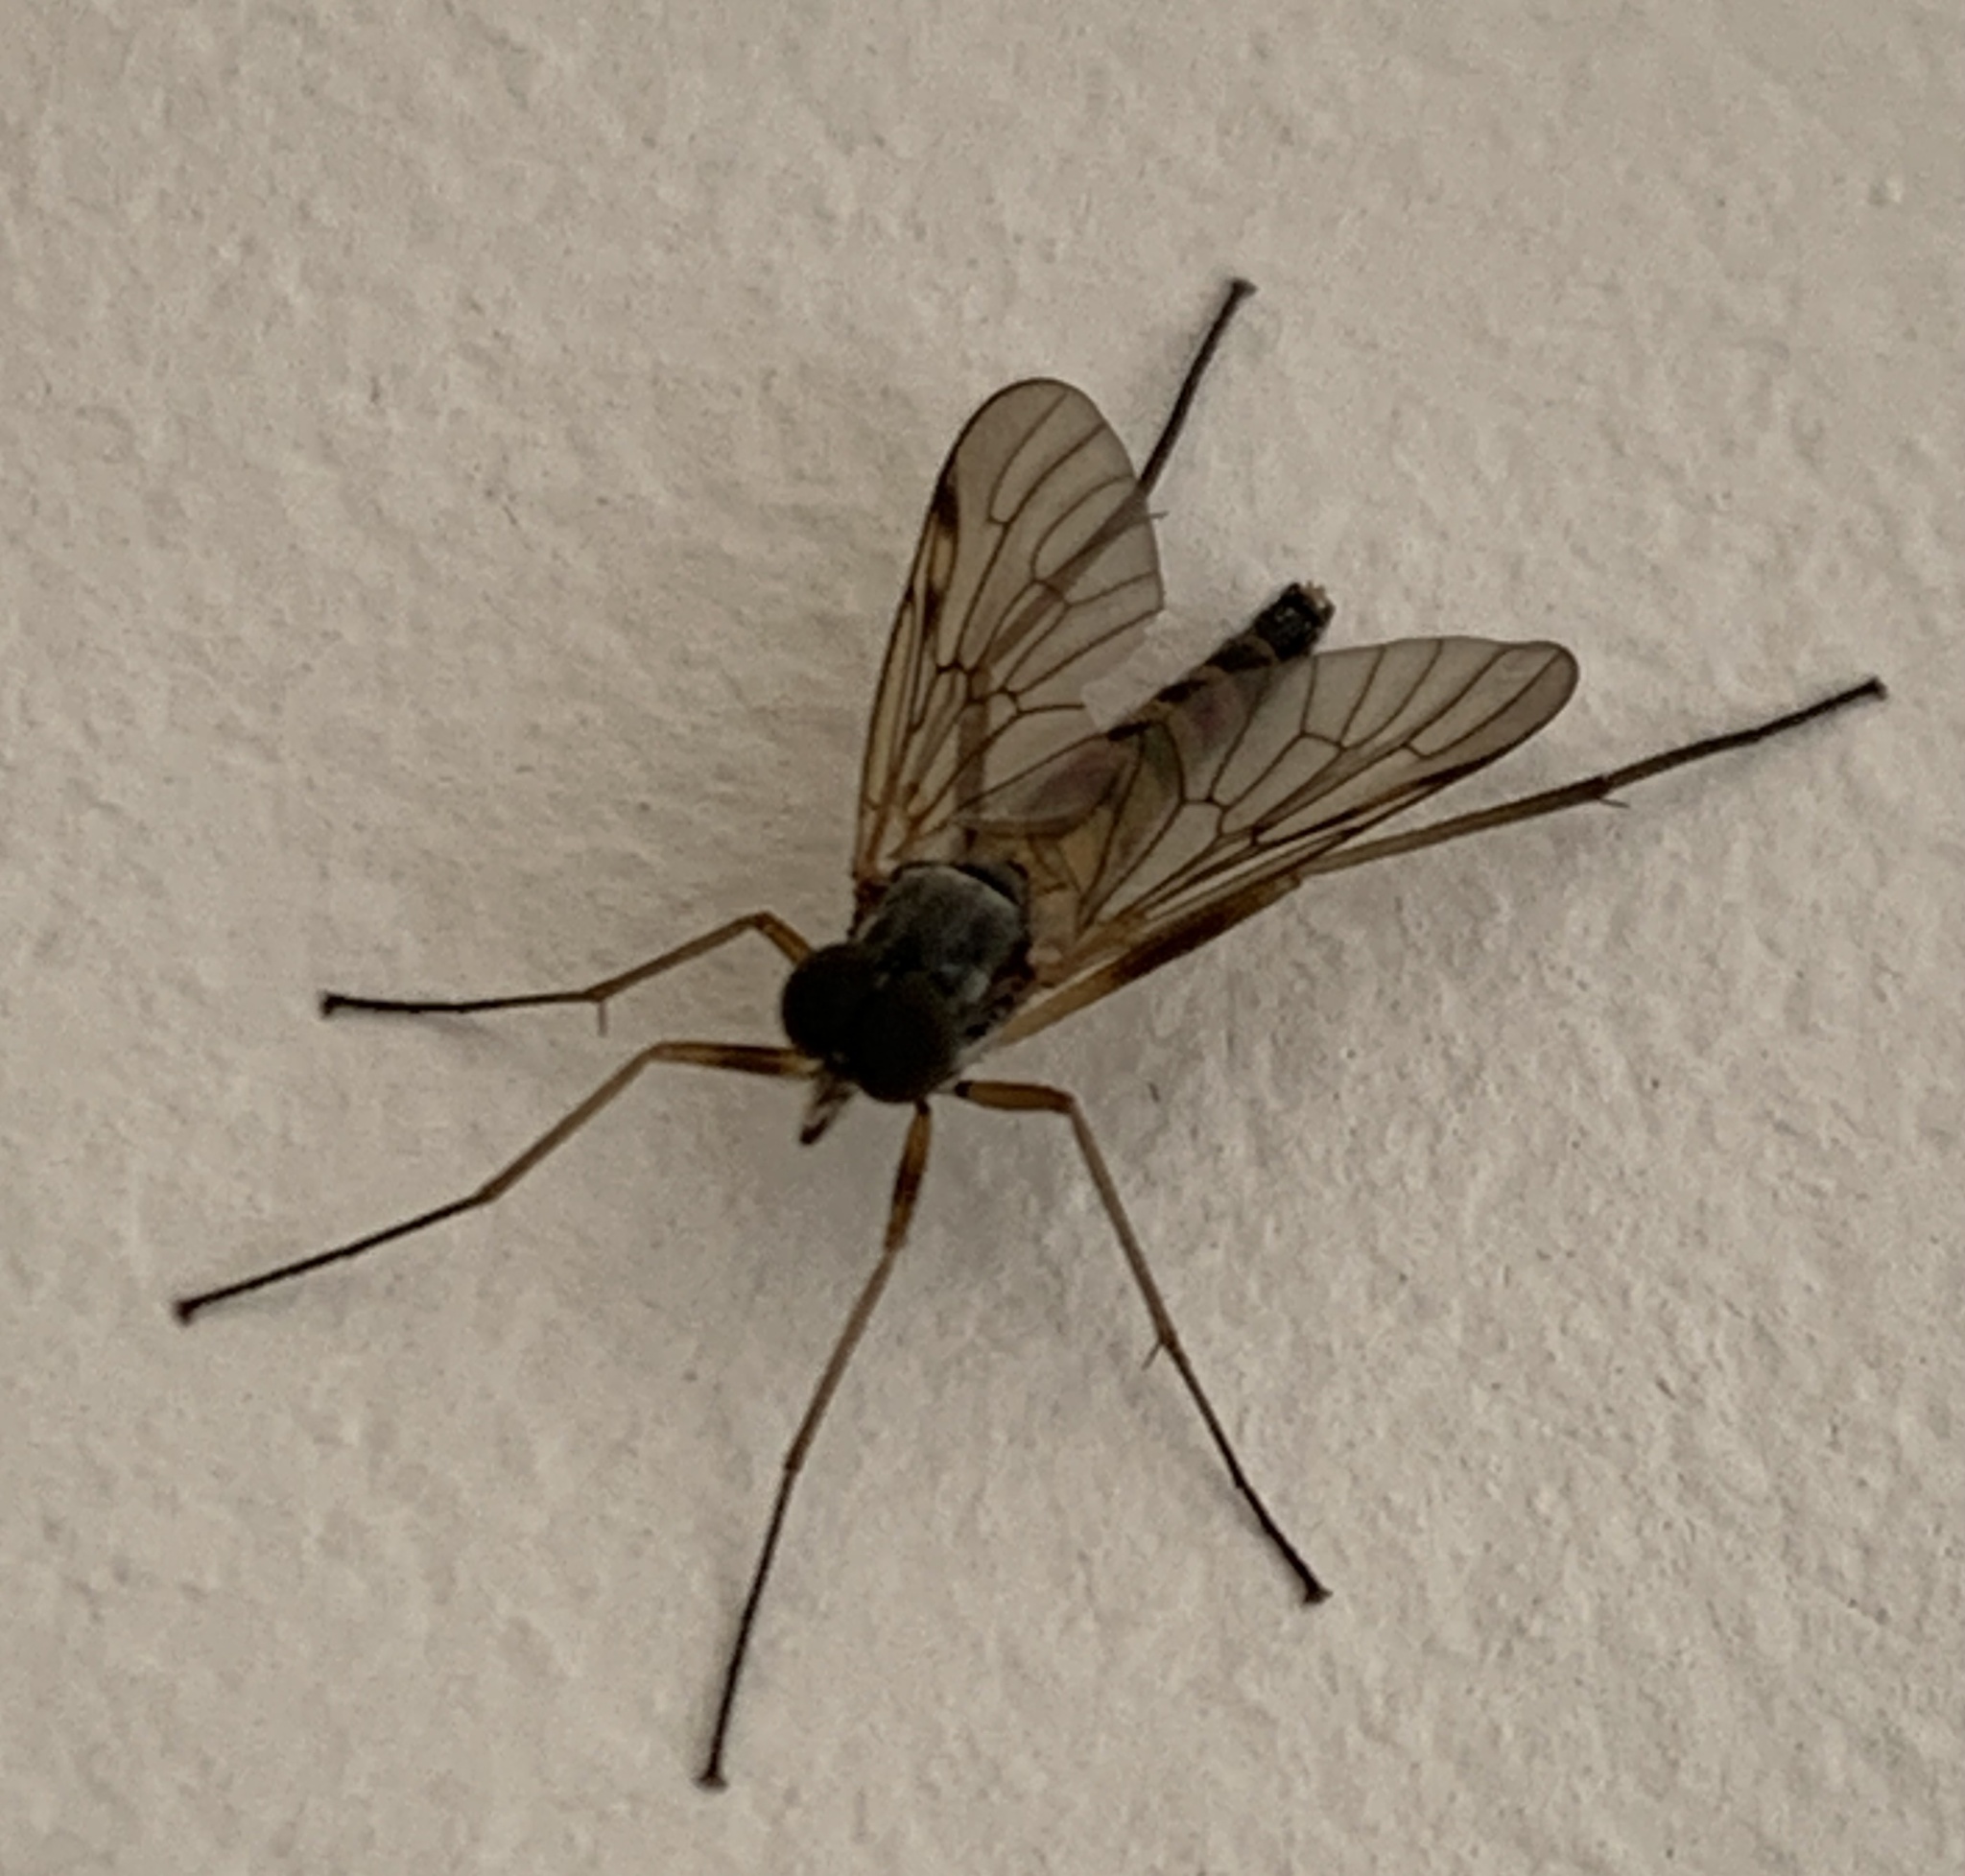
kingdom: Animalia
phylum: Arthropoda
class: Insecta
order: Diptera
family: Rhagionidae
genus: Rhagio
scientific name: Rhagio maculatus
